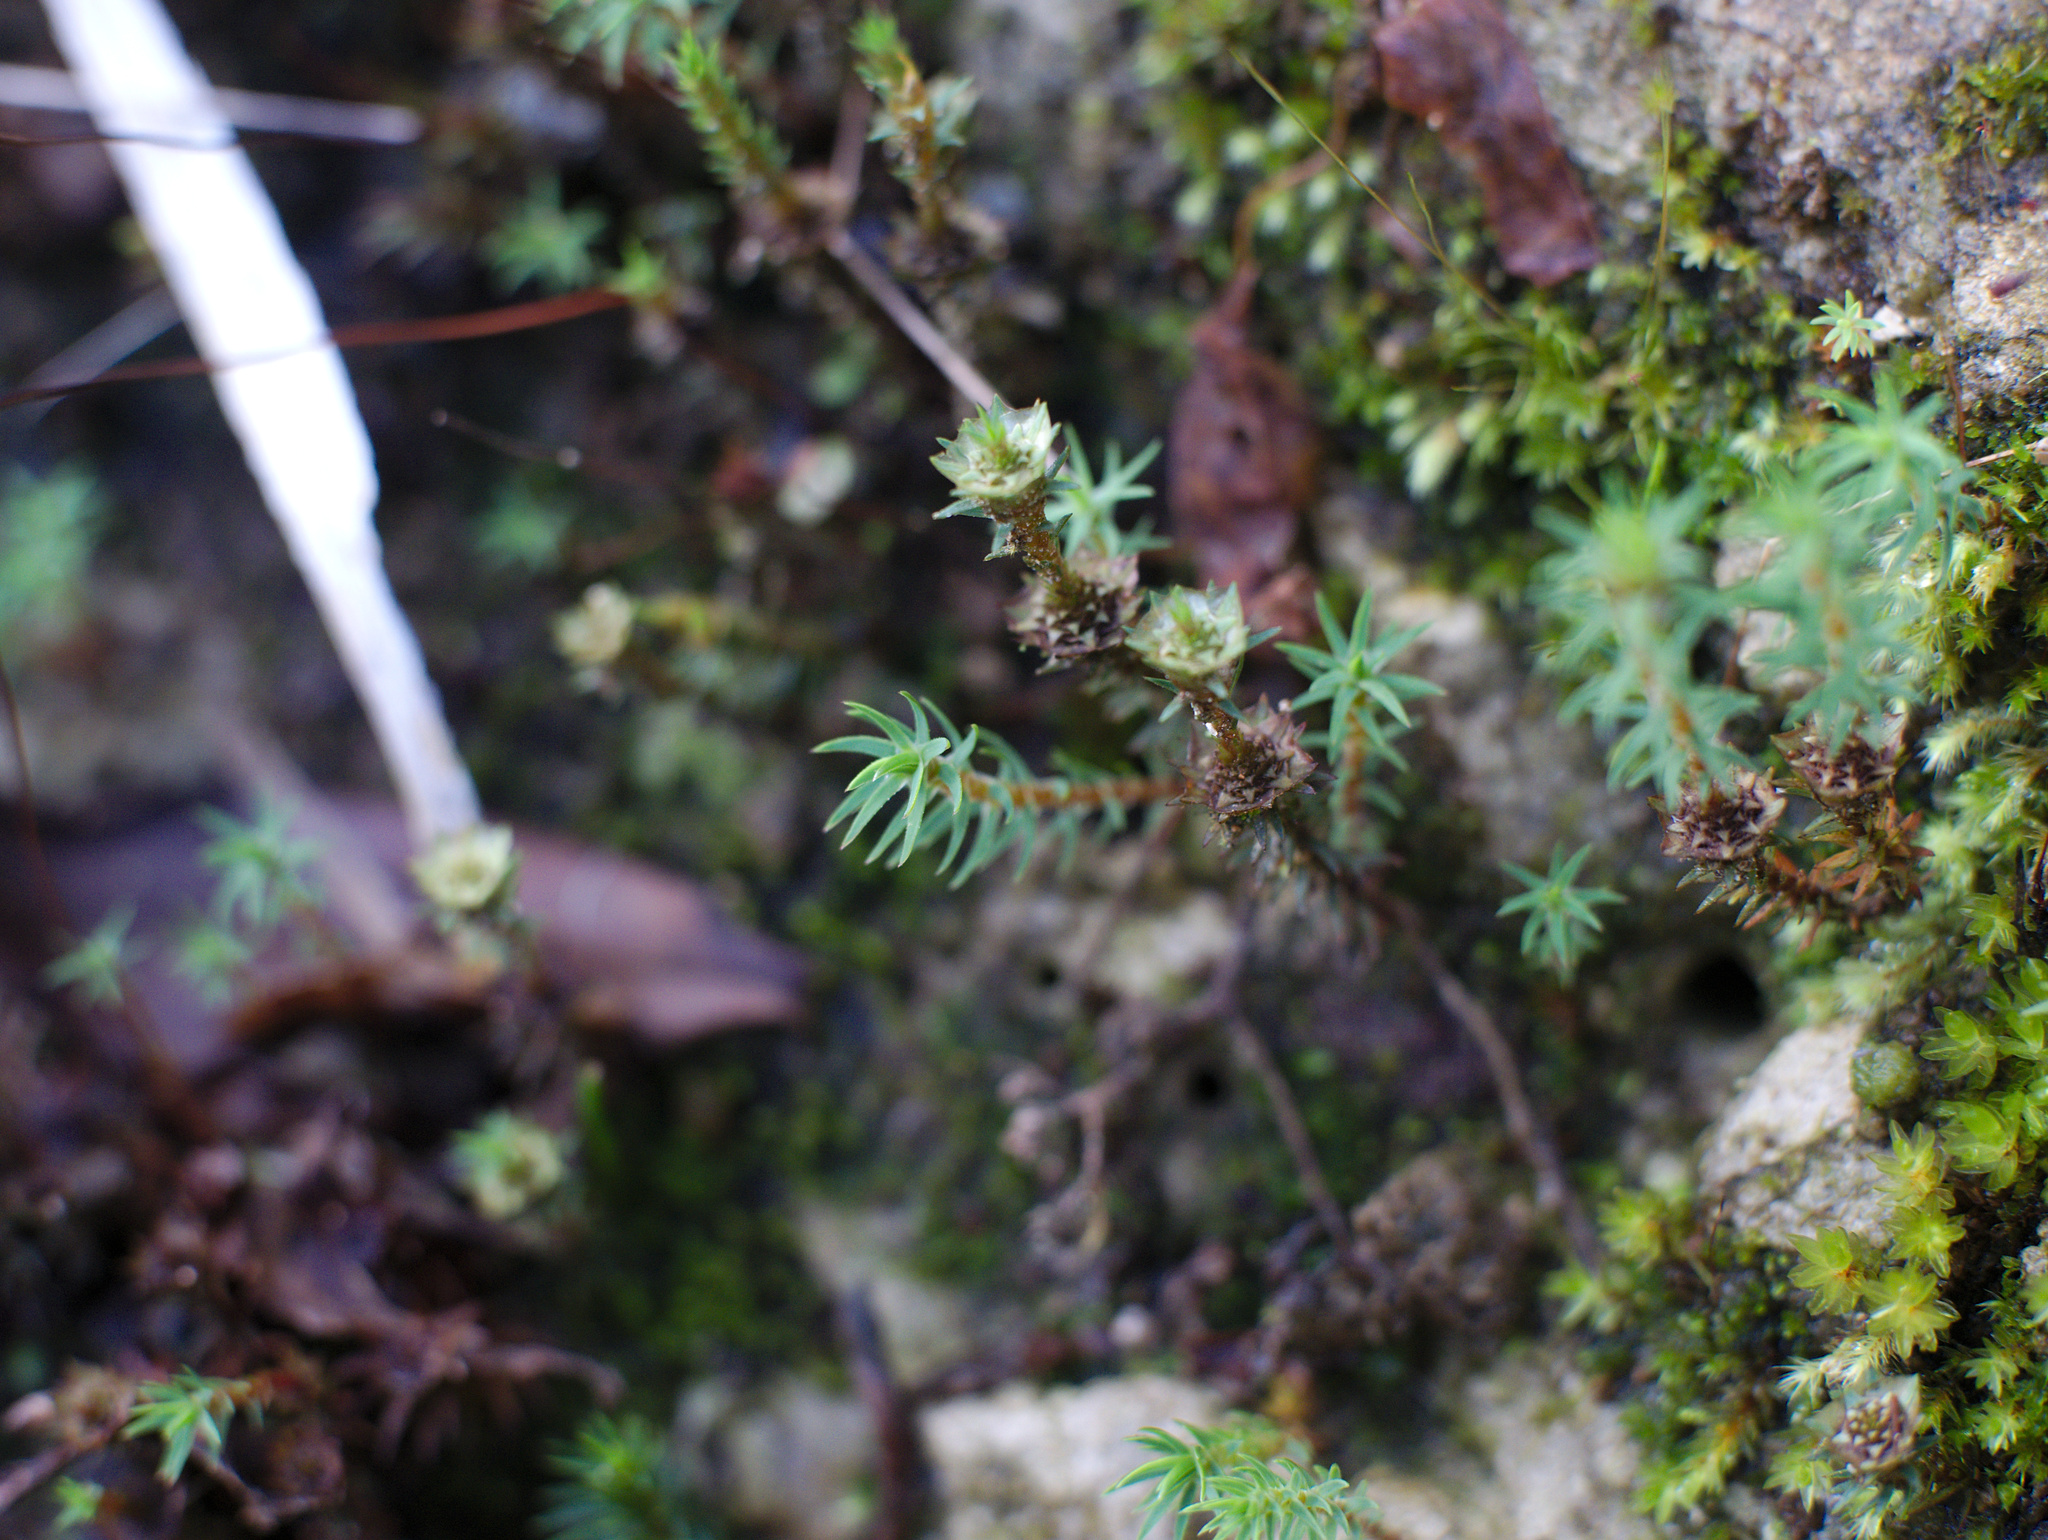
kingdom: Plantae
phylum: Bryophyta
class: Polytrichopsida
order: Polytrichales
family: Polytrichaceae
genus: Polytrichadelphus
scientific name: Polytrichadelphus magellanicus
